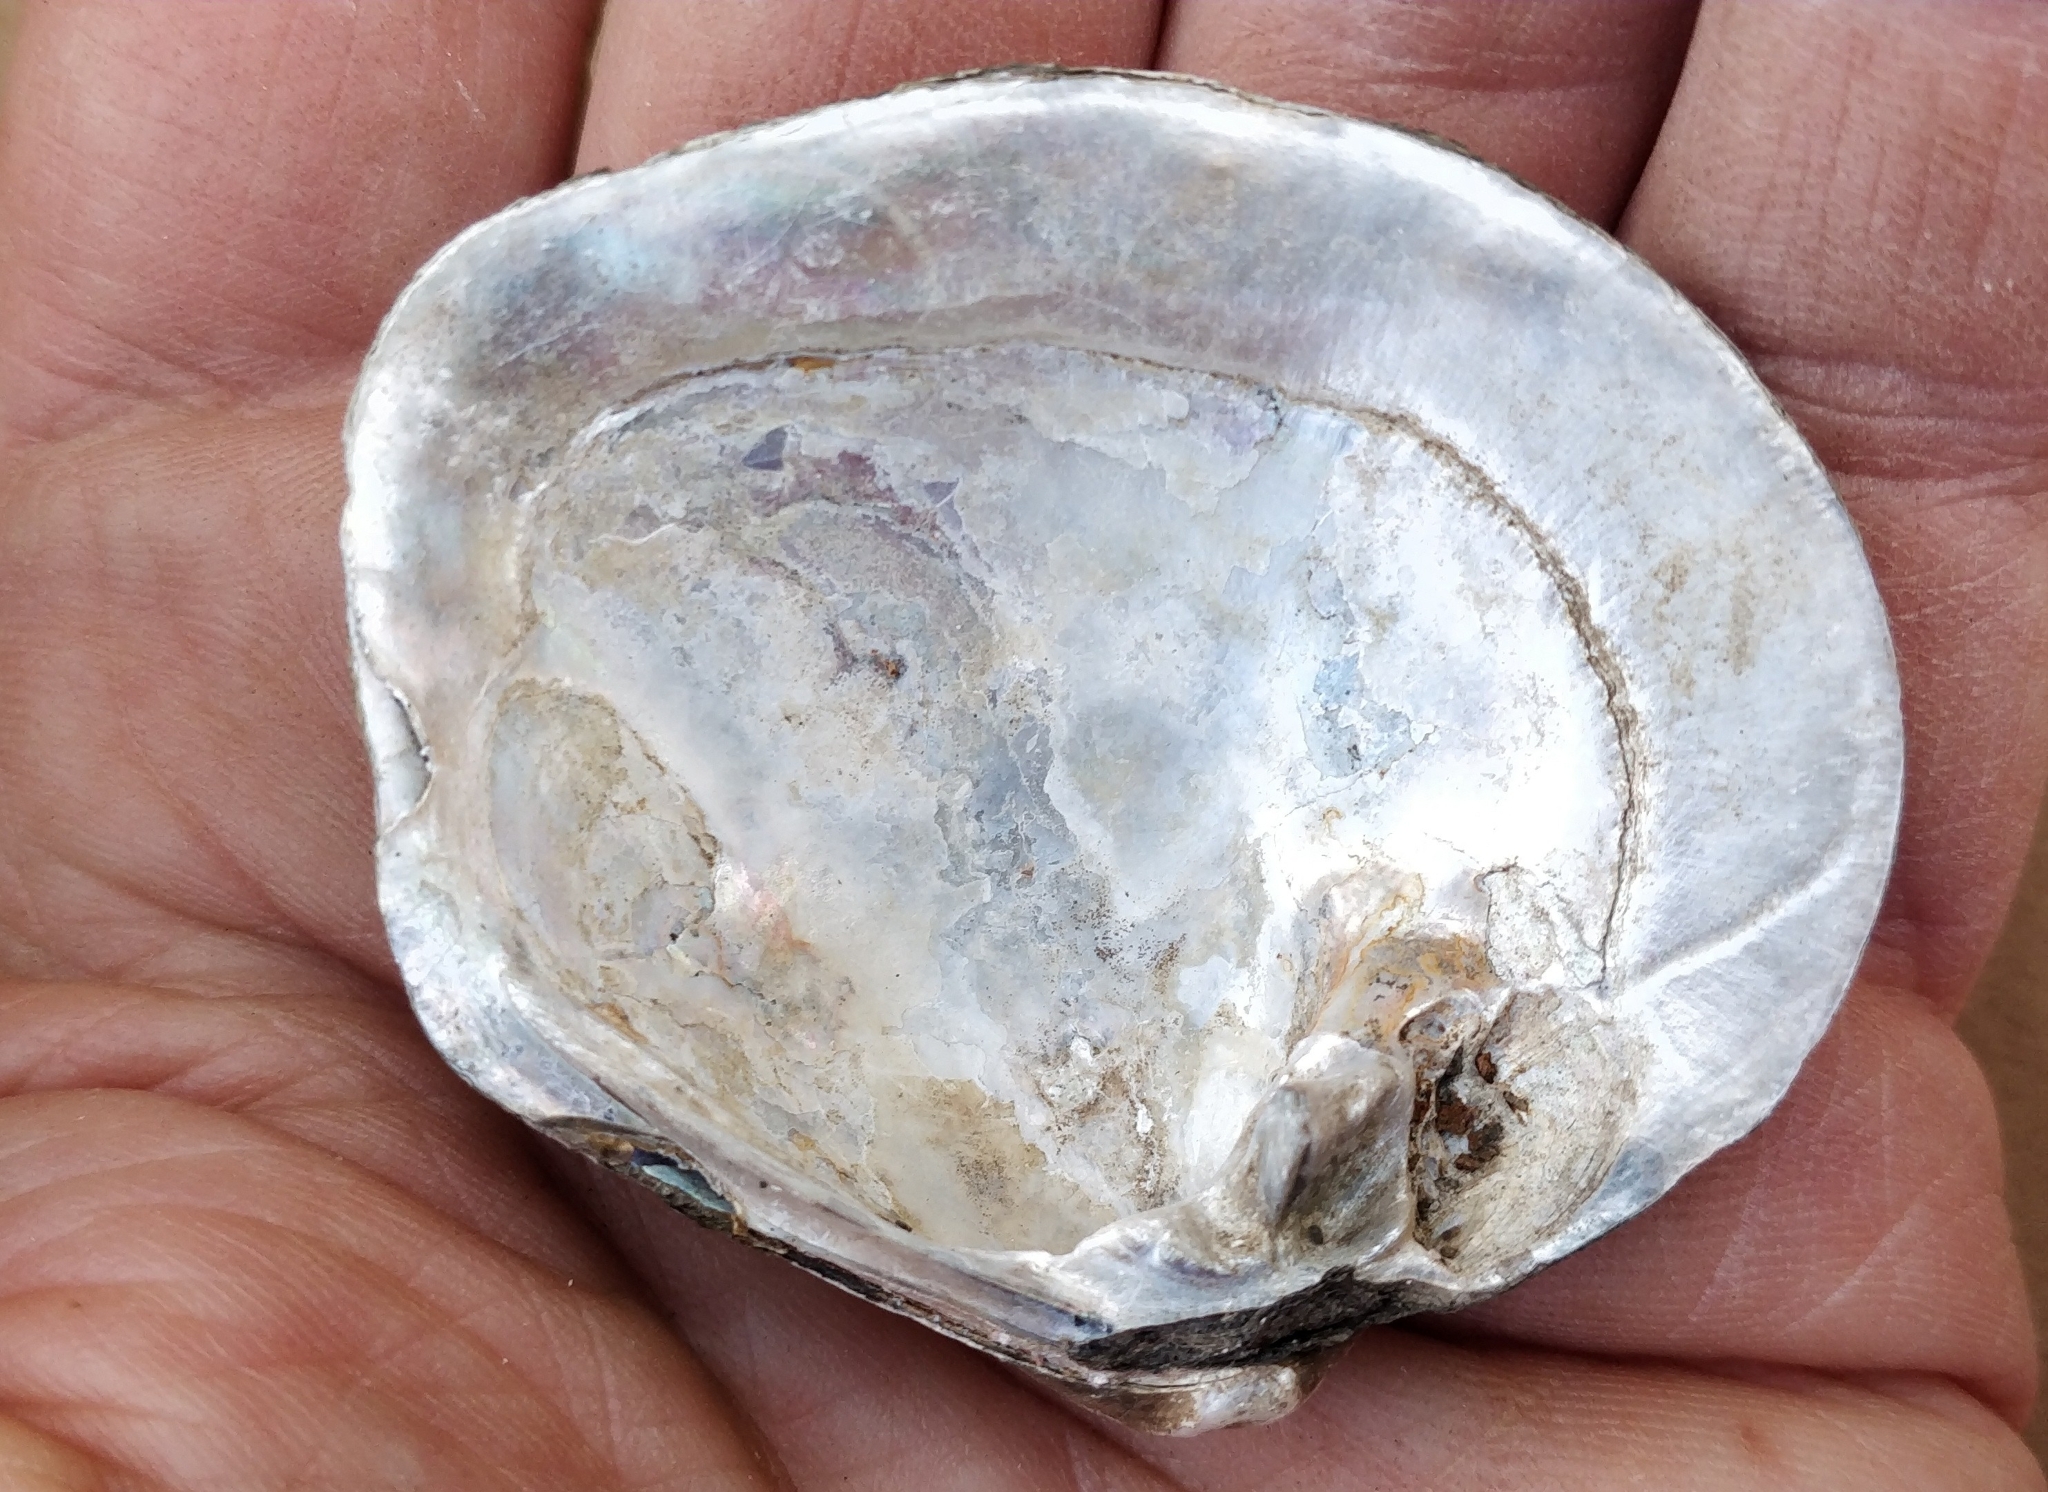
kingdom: Animalia
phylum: Mollusca
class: Bivalvia
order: Unionida
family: Unionidae
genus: Cyclonaias
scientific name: Cyclonaias pustulosa
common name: Pimpleback
